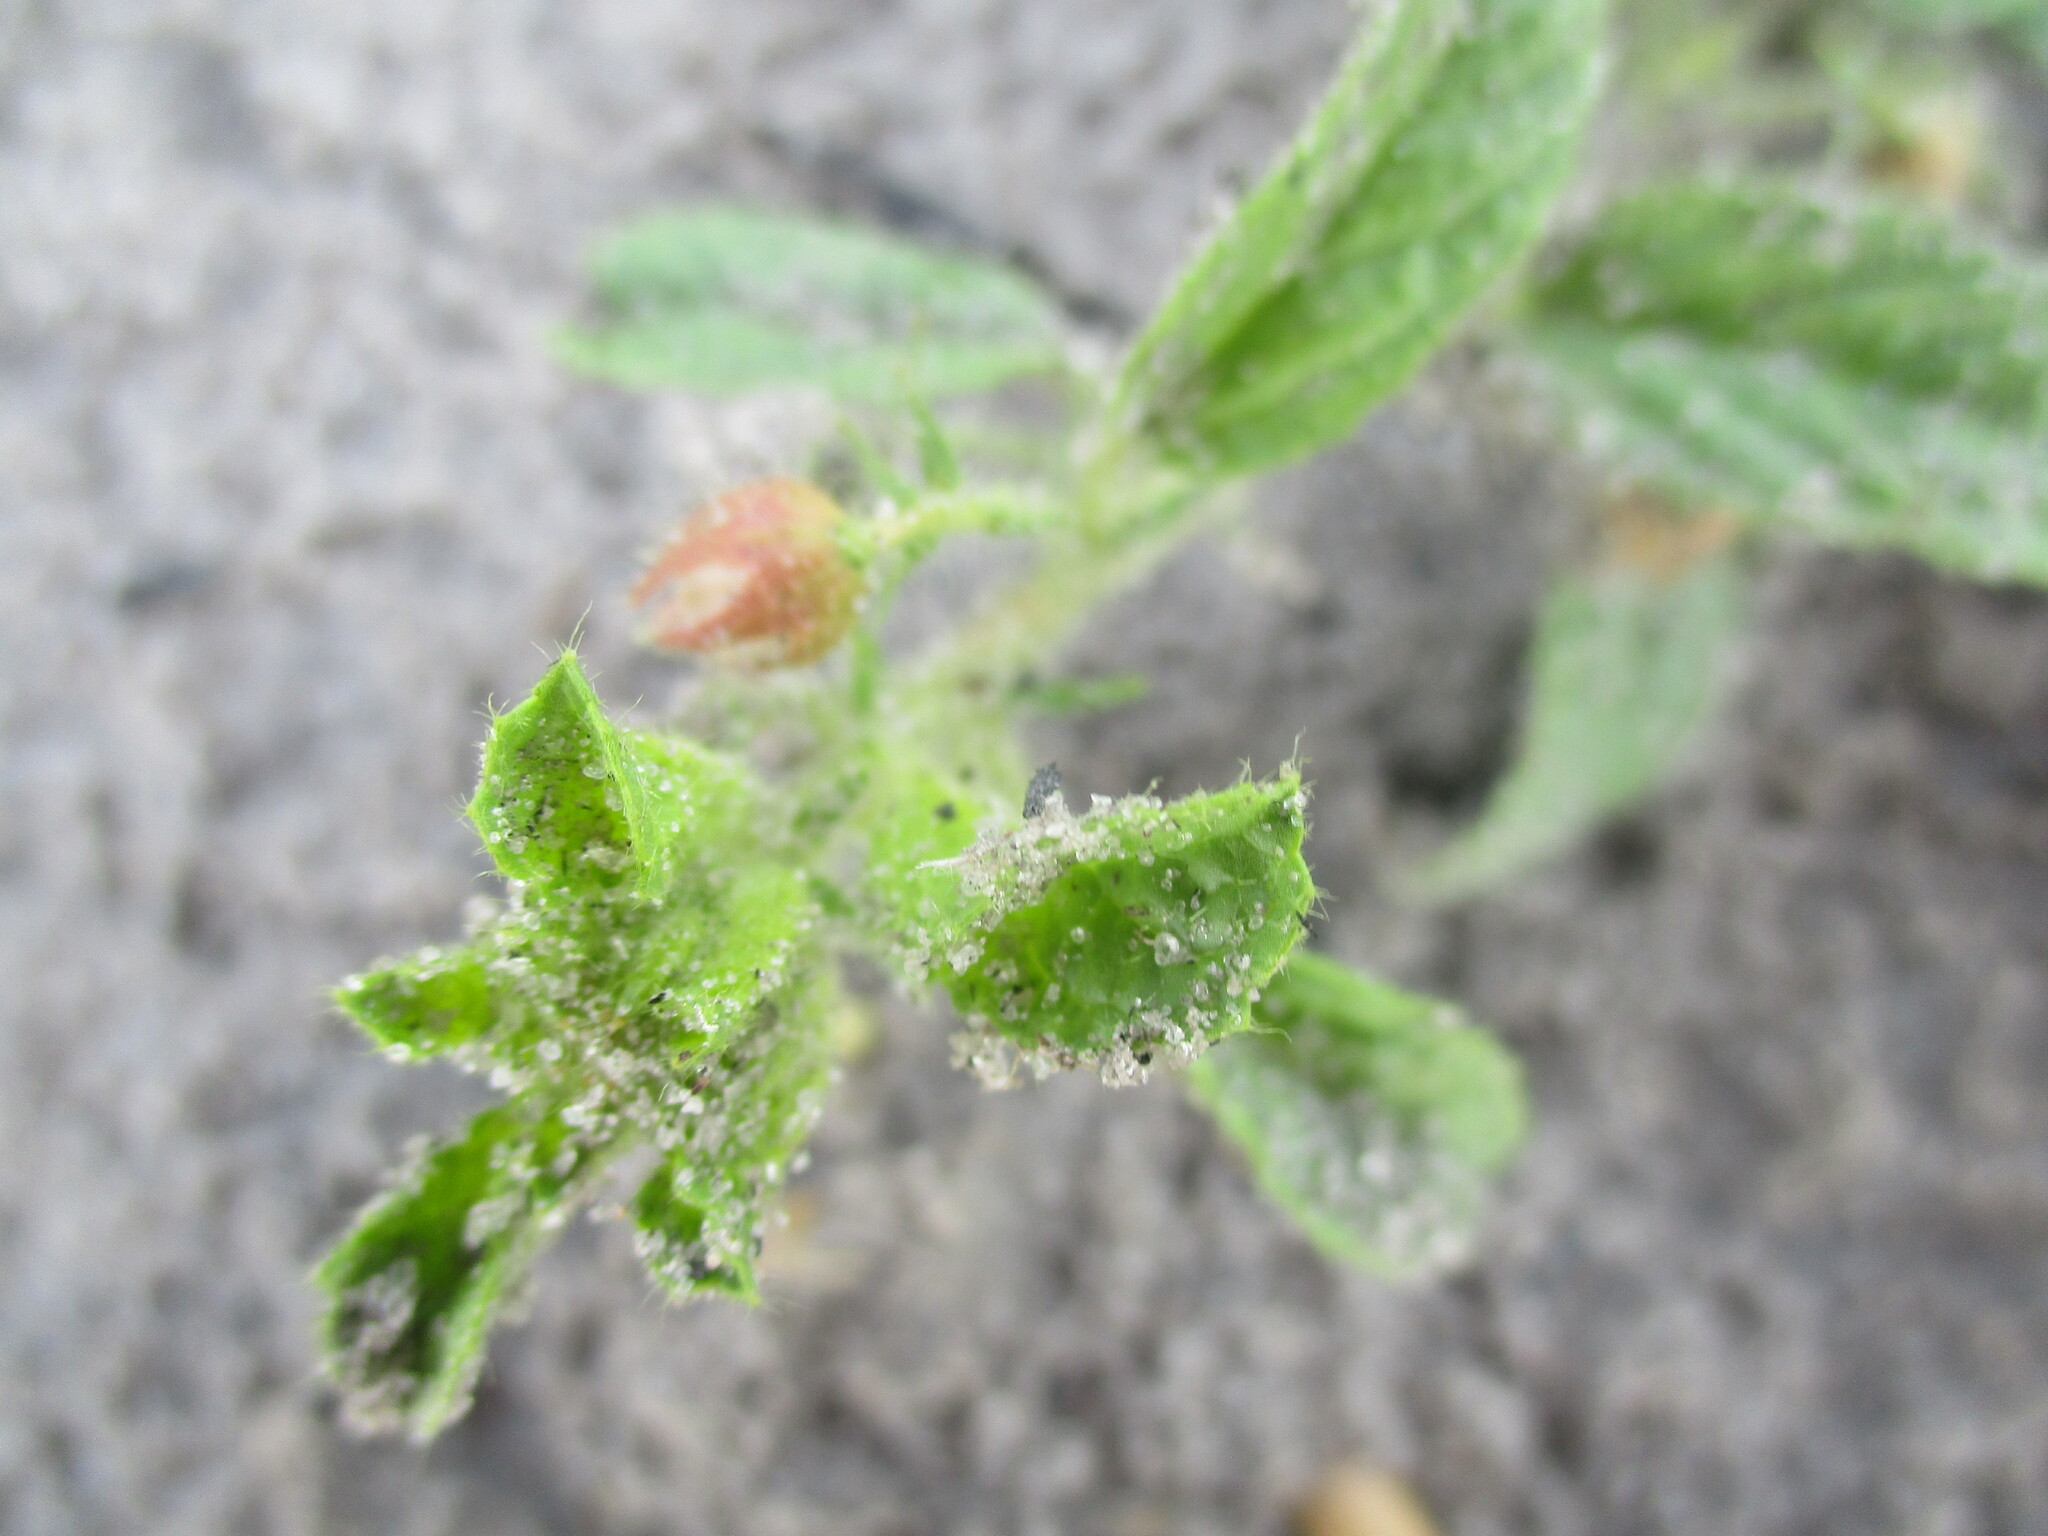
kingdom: Plantae
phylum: Tracheophyta
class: Magnoliopsida
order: Malvales
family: Malvaceae
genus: Hermannia
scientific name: Hermannia tomentosa
